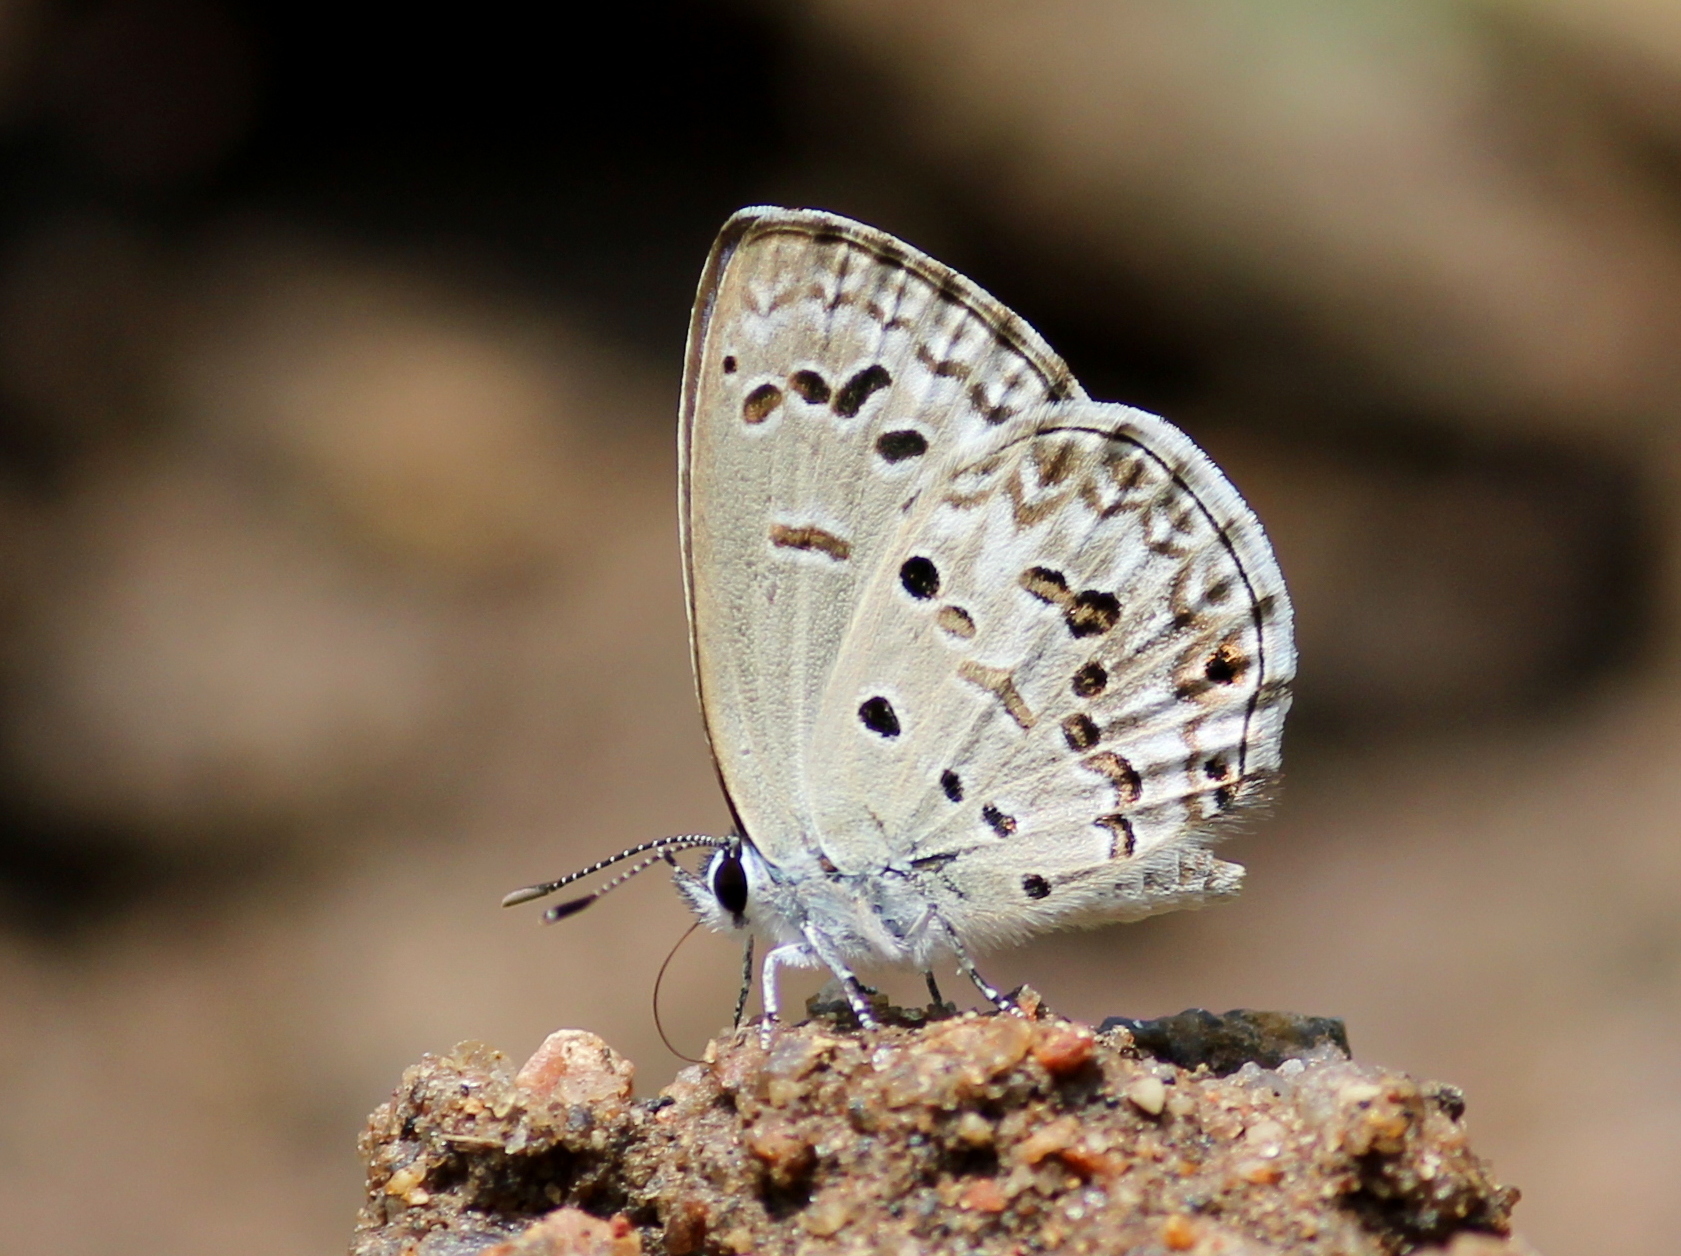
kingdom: Animalia
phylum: Arthropoda
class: Insecta
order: Lepidoptera
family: Lycaenidae
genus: Chilades
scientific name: Chilades laius
